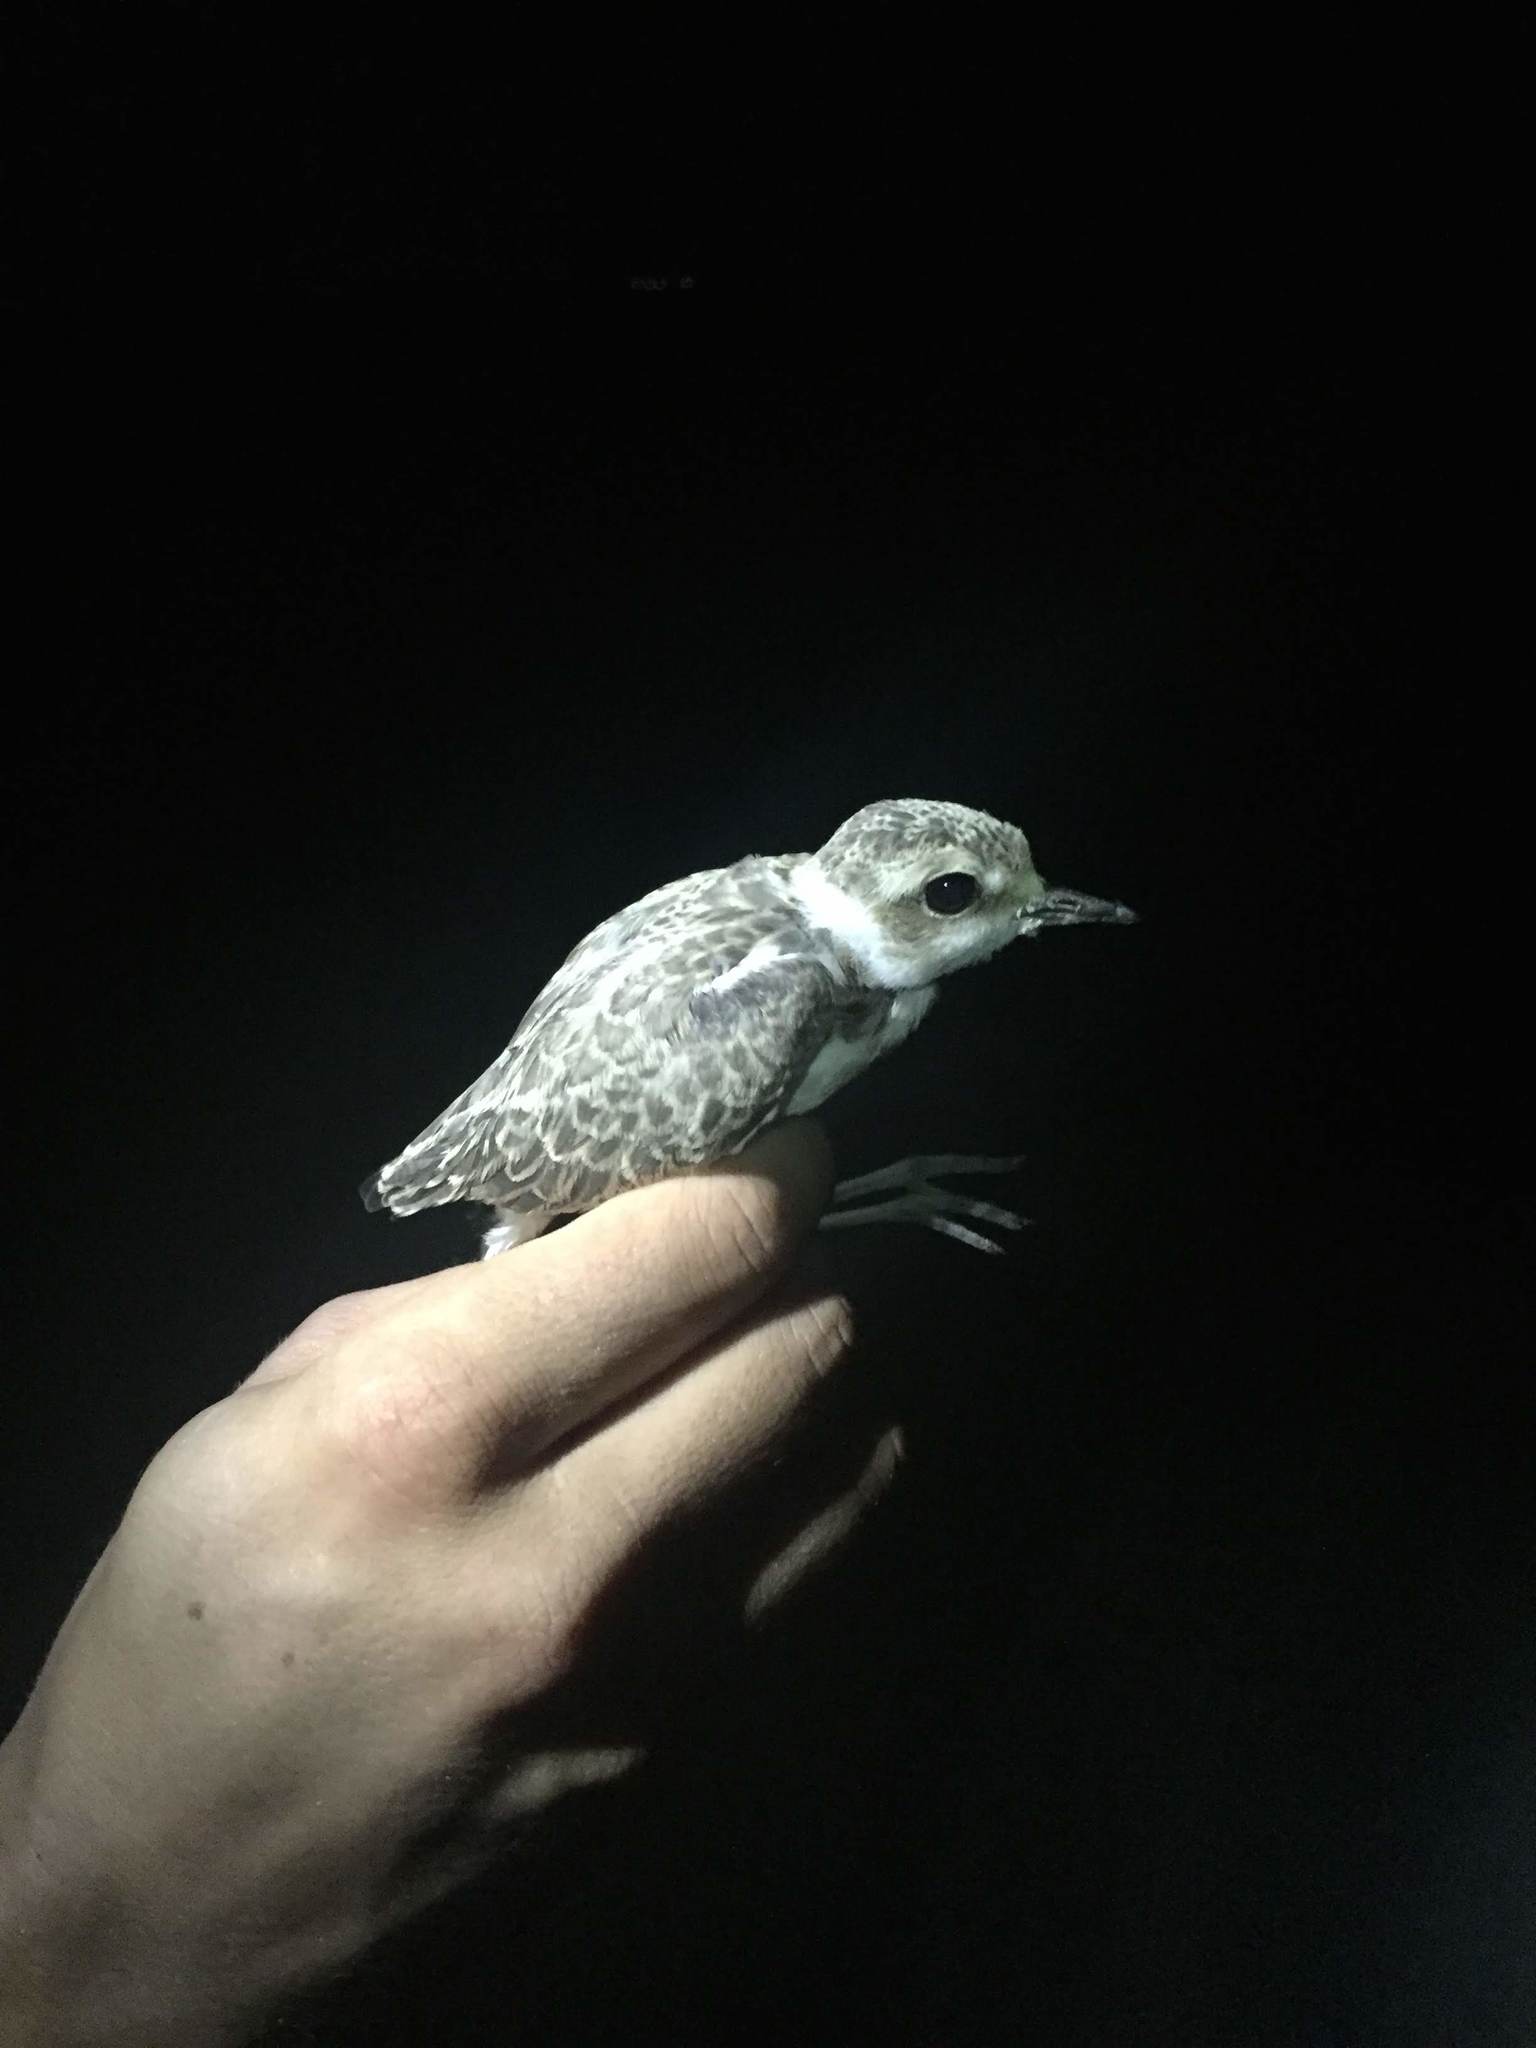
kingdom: Animalia
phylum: Chordata
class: Aves
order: Charadriiformes
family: Charadriidae
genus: Charadrius
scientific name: Charadrius alexandrinus
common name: Kentish plover
